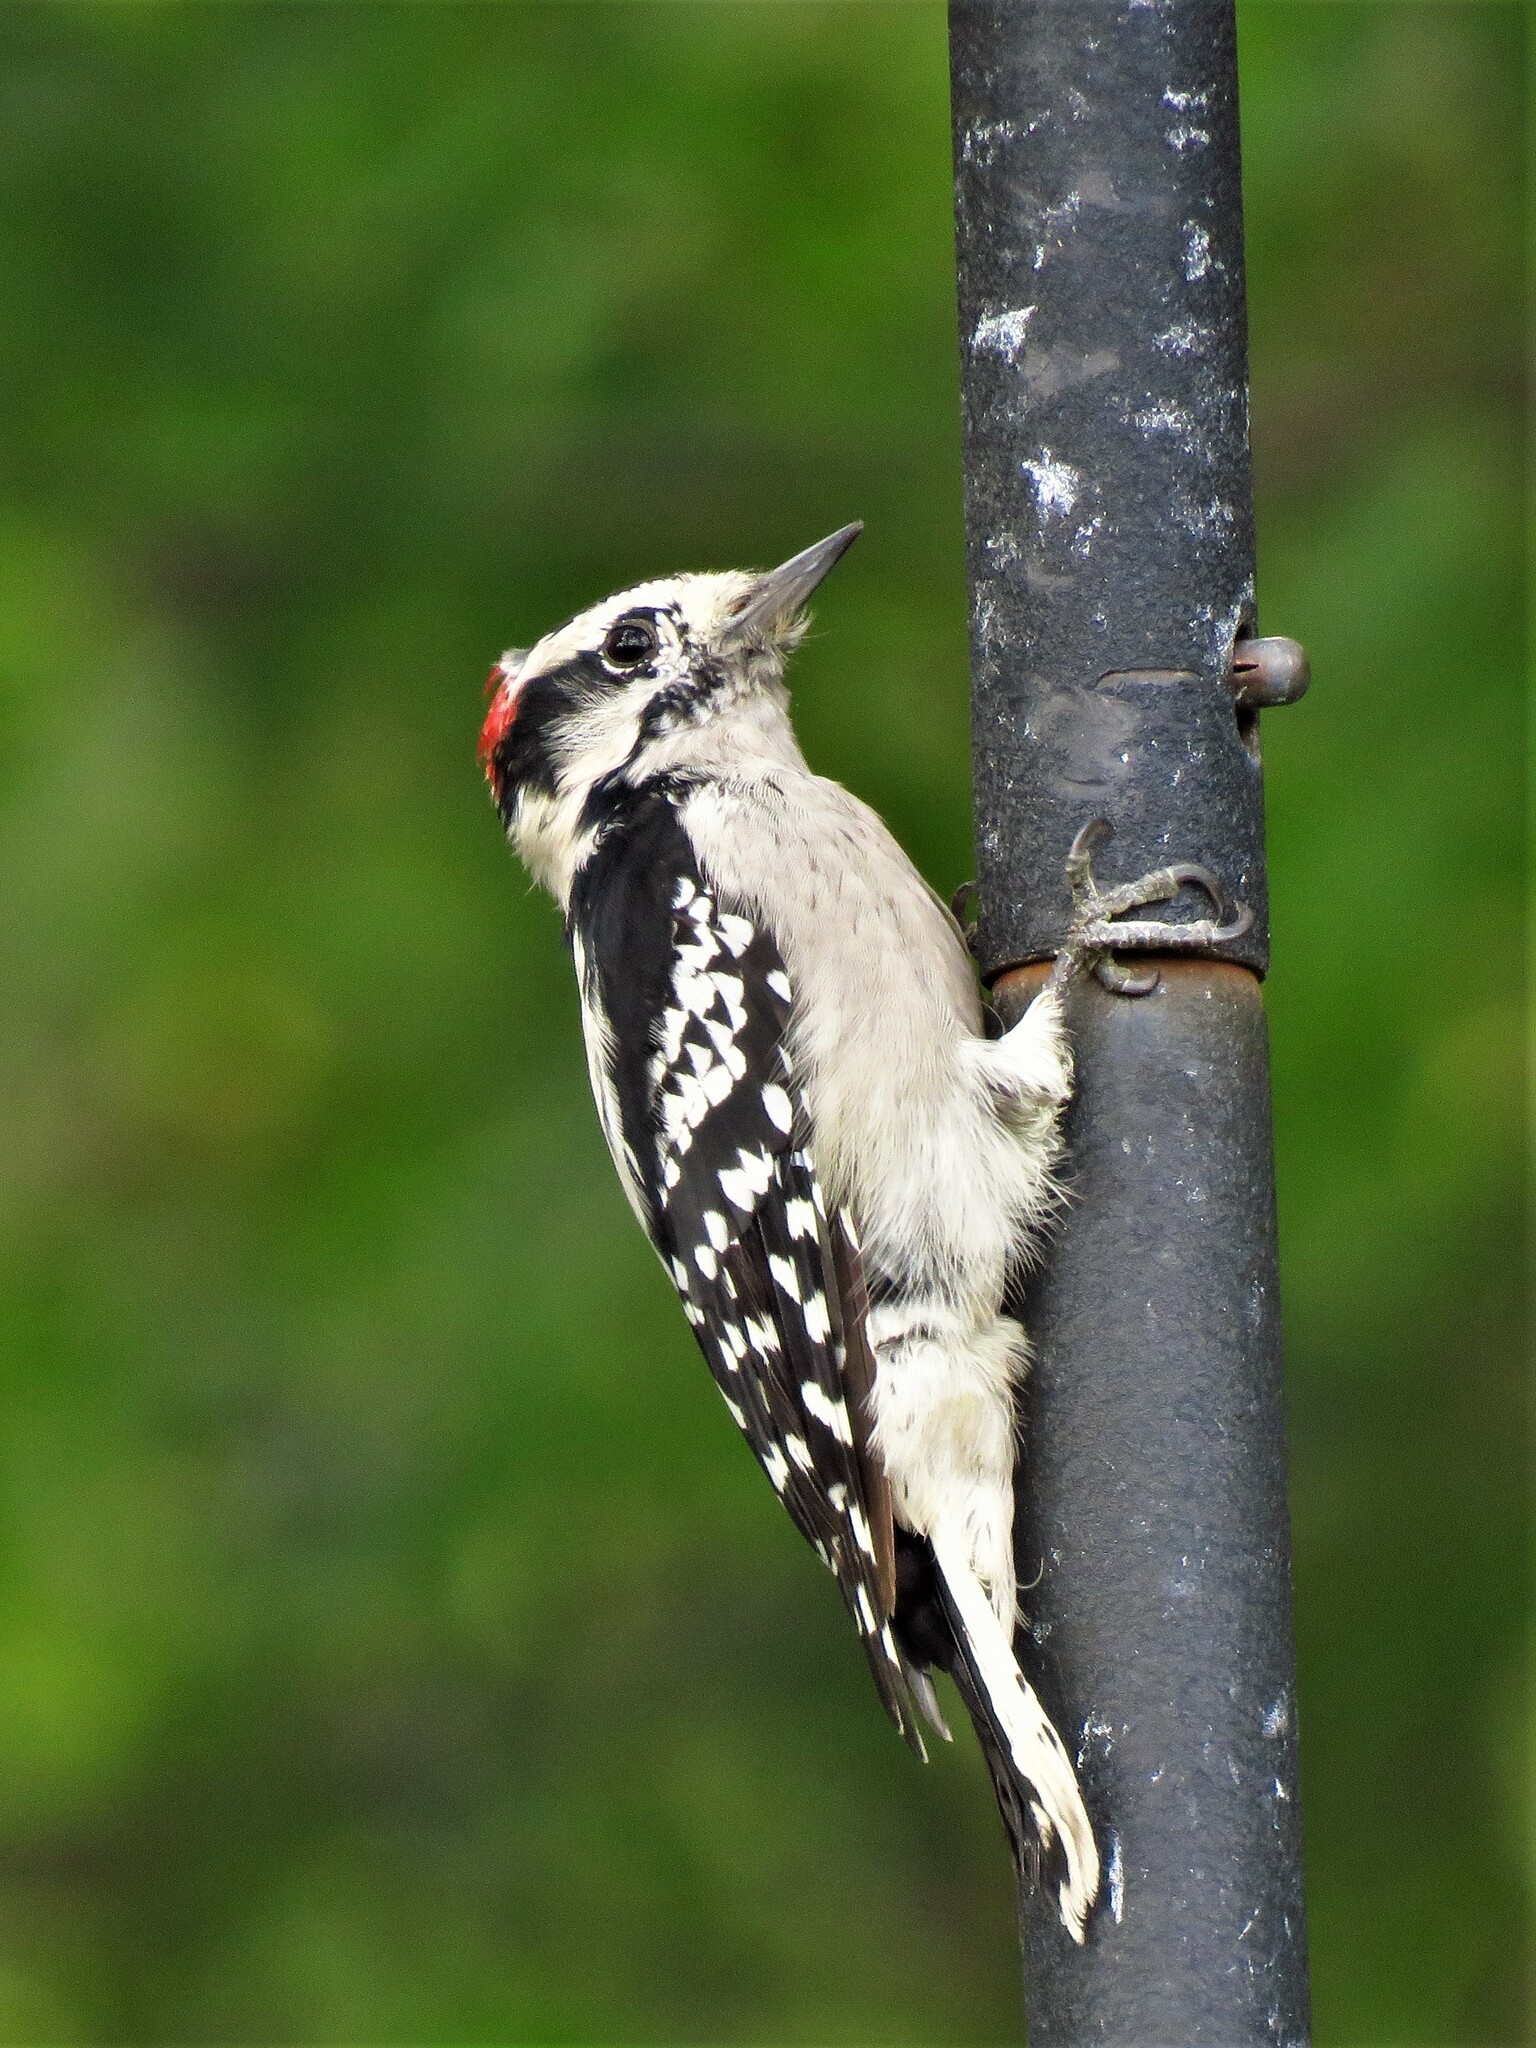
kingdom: Animalia
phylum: Chordata
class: Aves
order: Piciformes
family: Picidae
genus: Dryobates
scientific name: Dryobates pubescens
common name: Downy woodpecker
